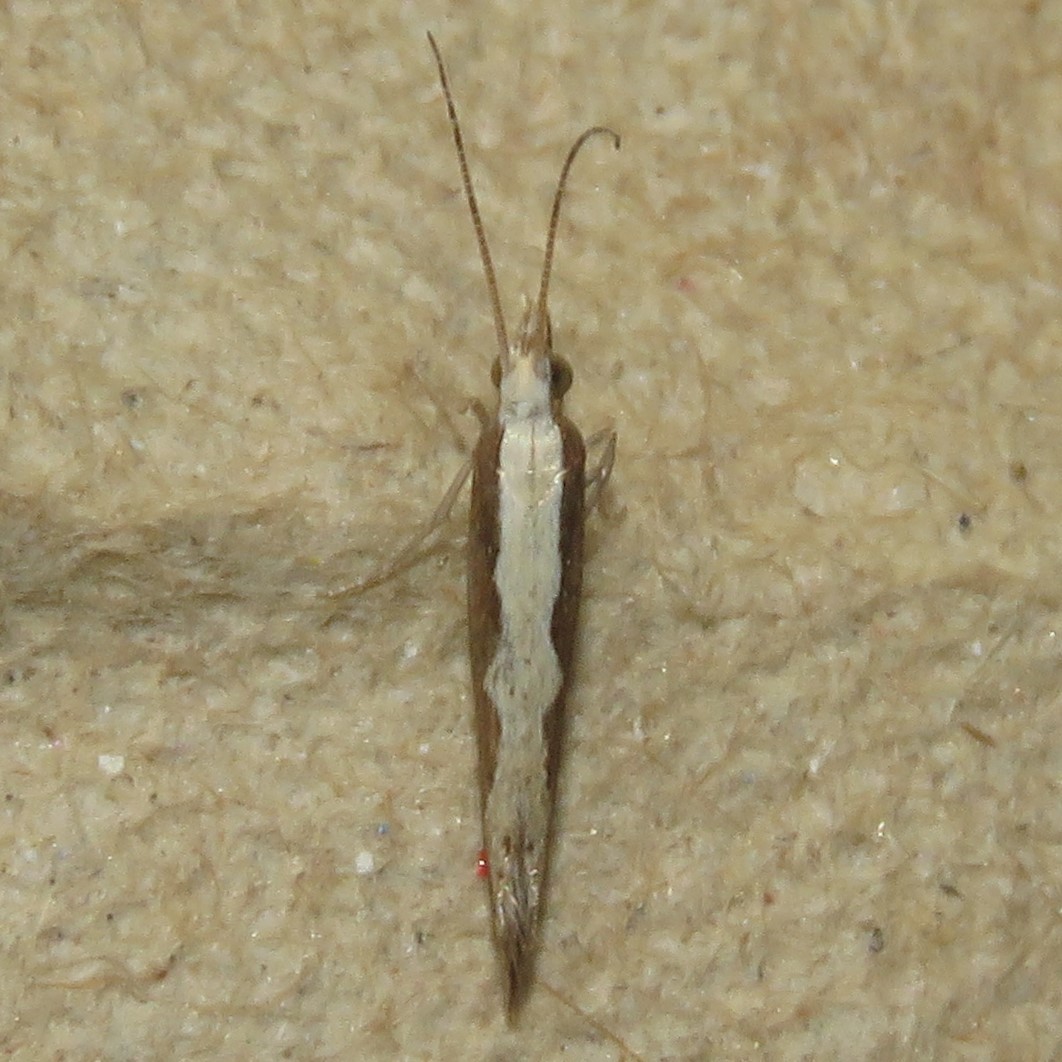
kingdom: Animalia
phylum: Arthropoda
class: Insecta
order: Lepidoptera
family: Plutellidae
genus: Plutella
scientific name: Plutella xylostella
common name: Diamond-back moth
